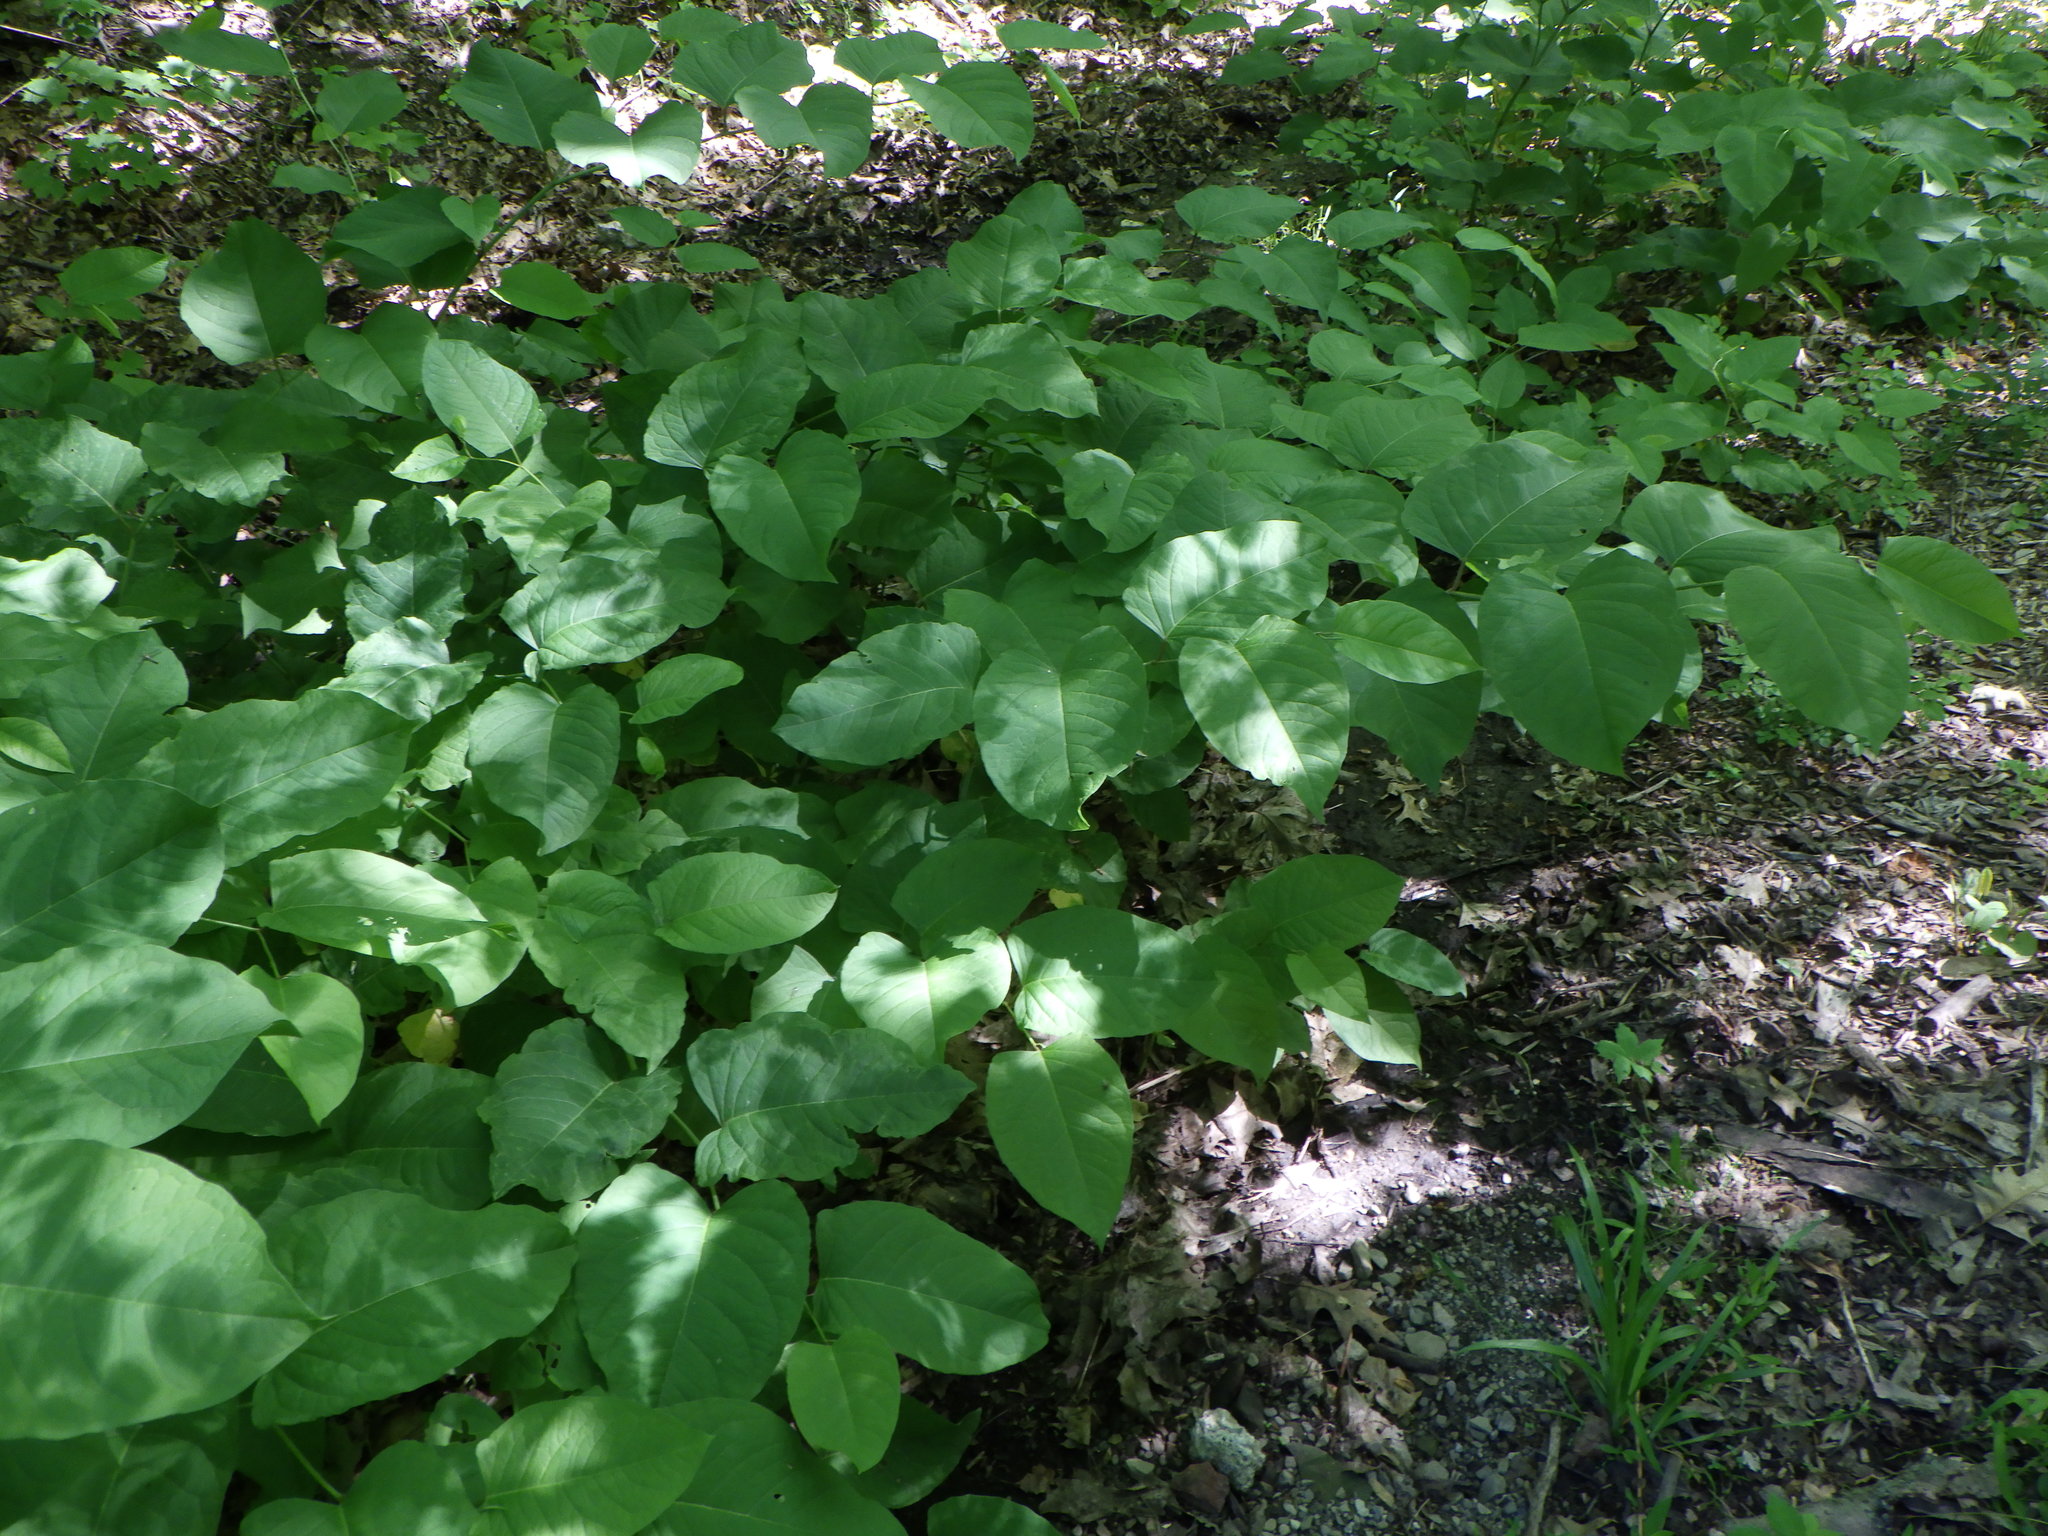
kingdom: Plantae
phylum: Tracheophyta
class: Magnoliopsida
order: Caryophyllales
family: Polygonaceae
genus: Reynoutria
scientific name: Reynoutria japonica
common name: Japanese knotweed
